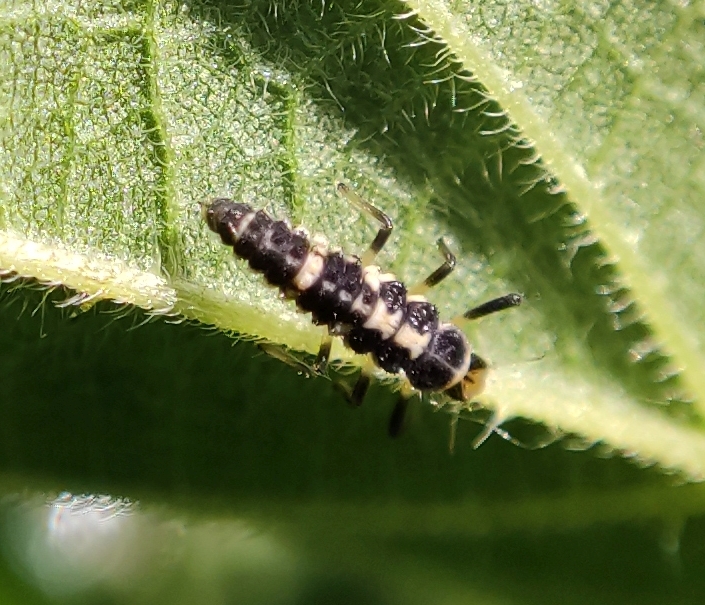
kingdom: Animalia
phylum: Arthropoda
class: Insecta
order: Coleoptera
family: Coccinellidae
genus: Propylaea
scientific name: Propylaea quatuordecimpunctata
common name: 14-spotted ladybird beetle
